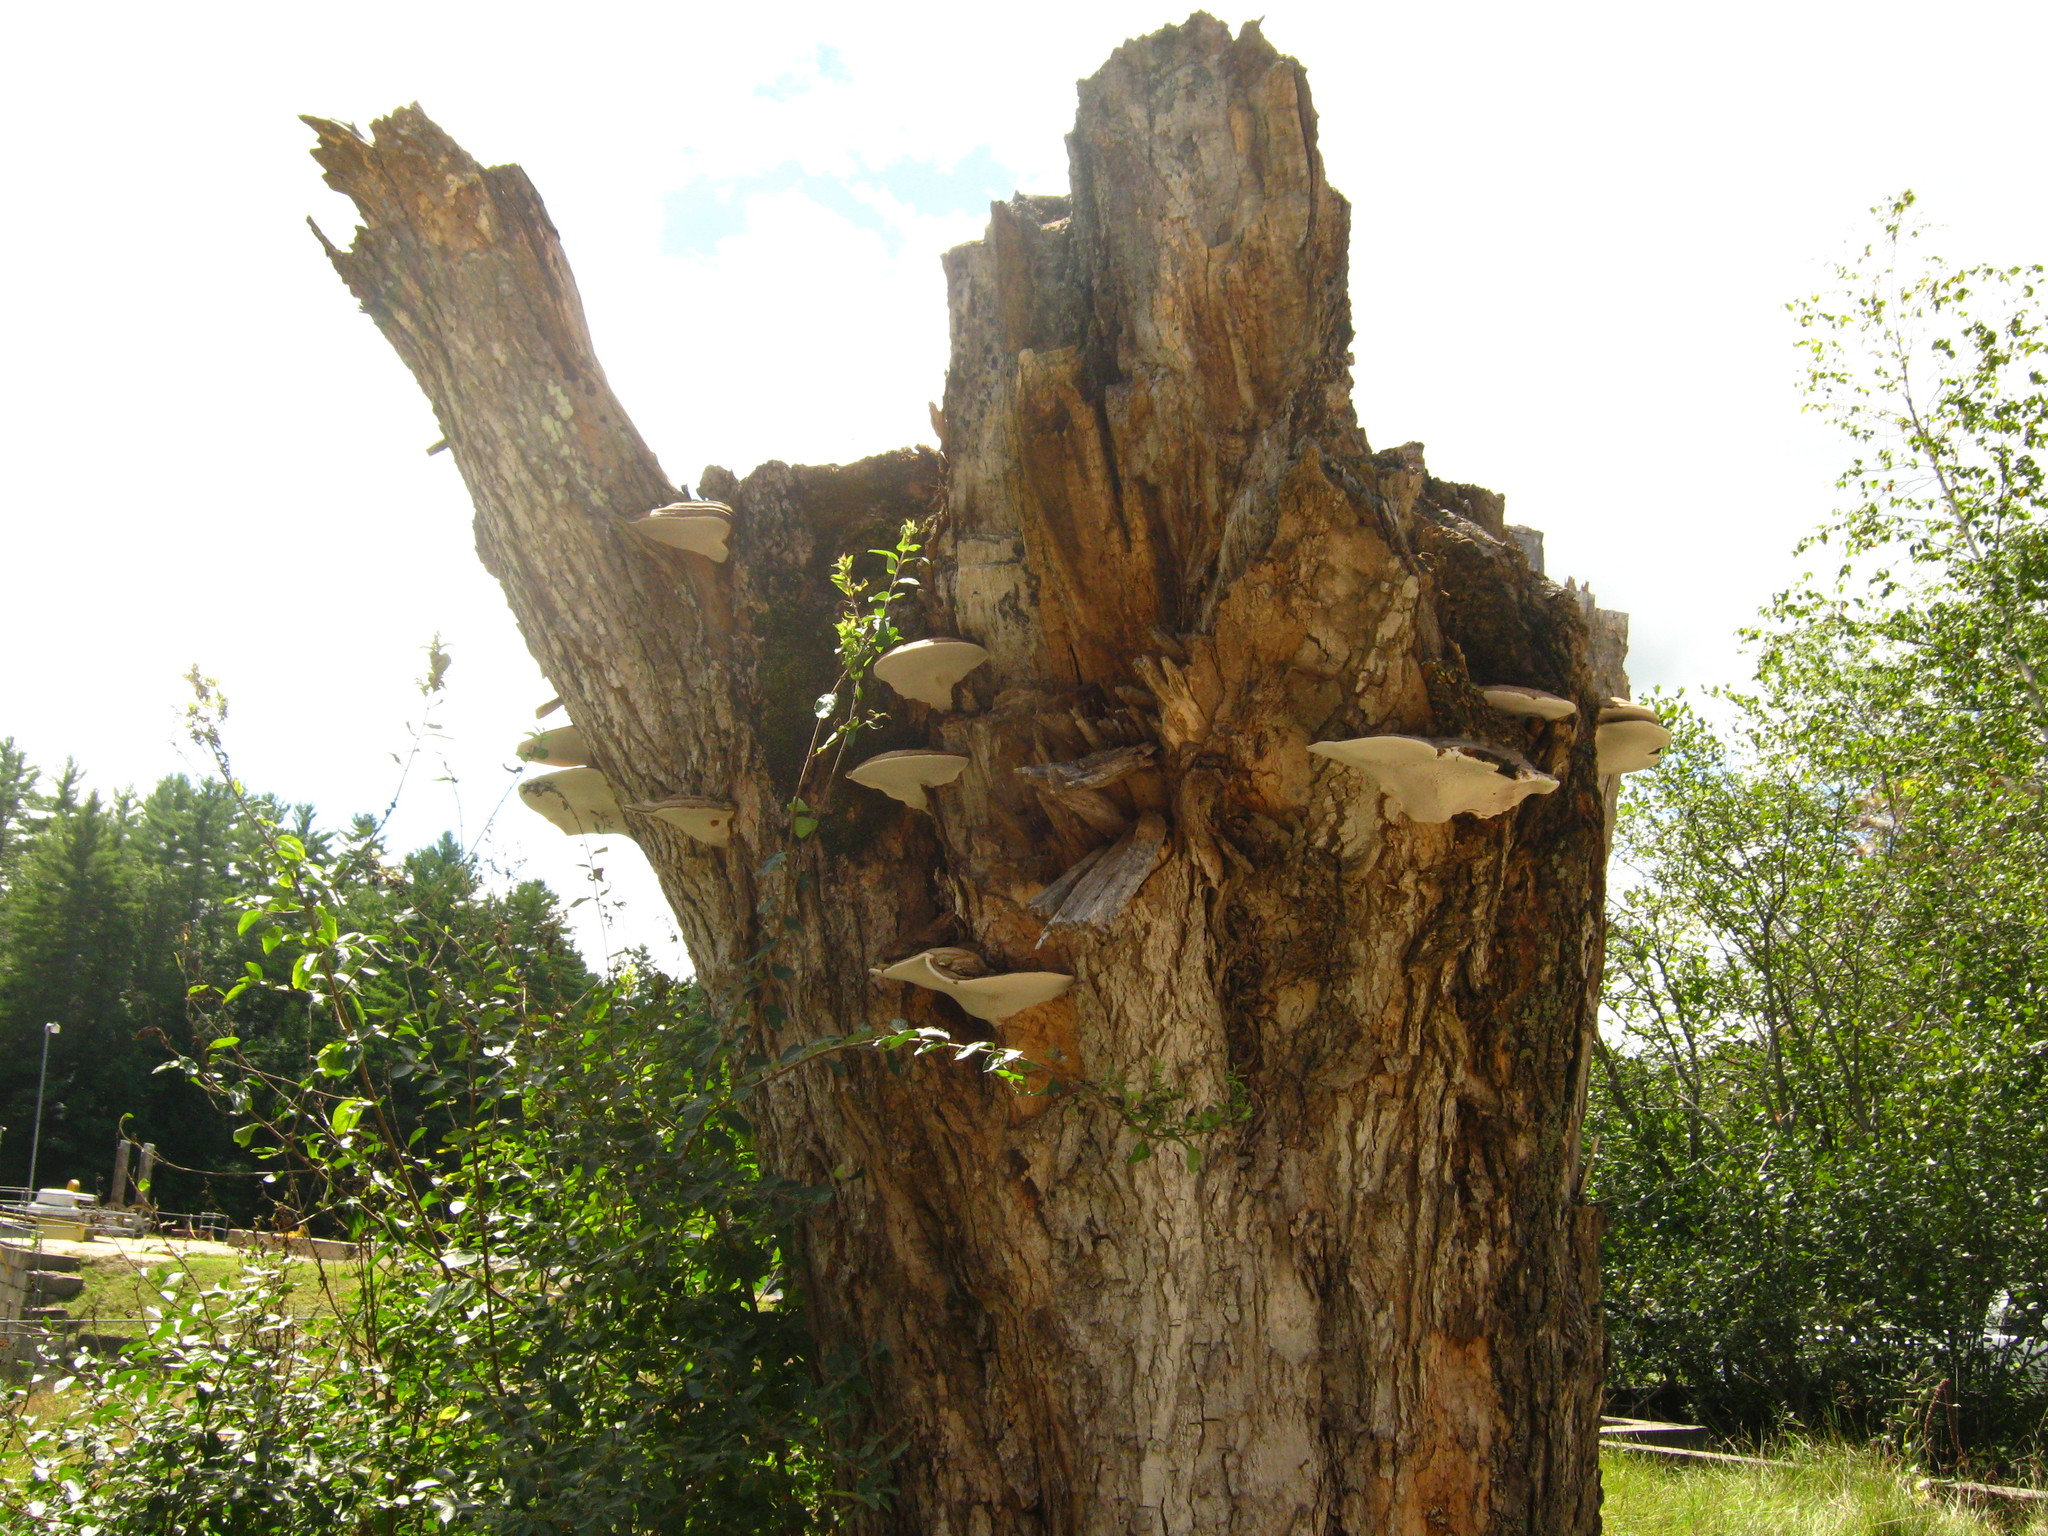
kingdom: Fungi
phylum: Basidiomycota
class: Agaricomycetes
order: Polyporales
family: Polyporaceae
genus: Ganoderma
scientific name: Ganoderma applanatum
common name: Artist's bracket
